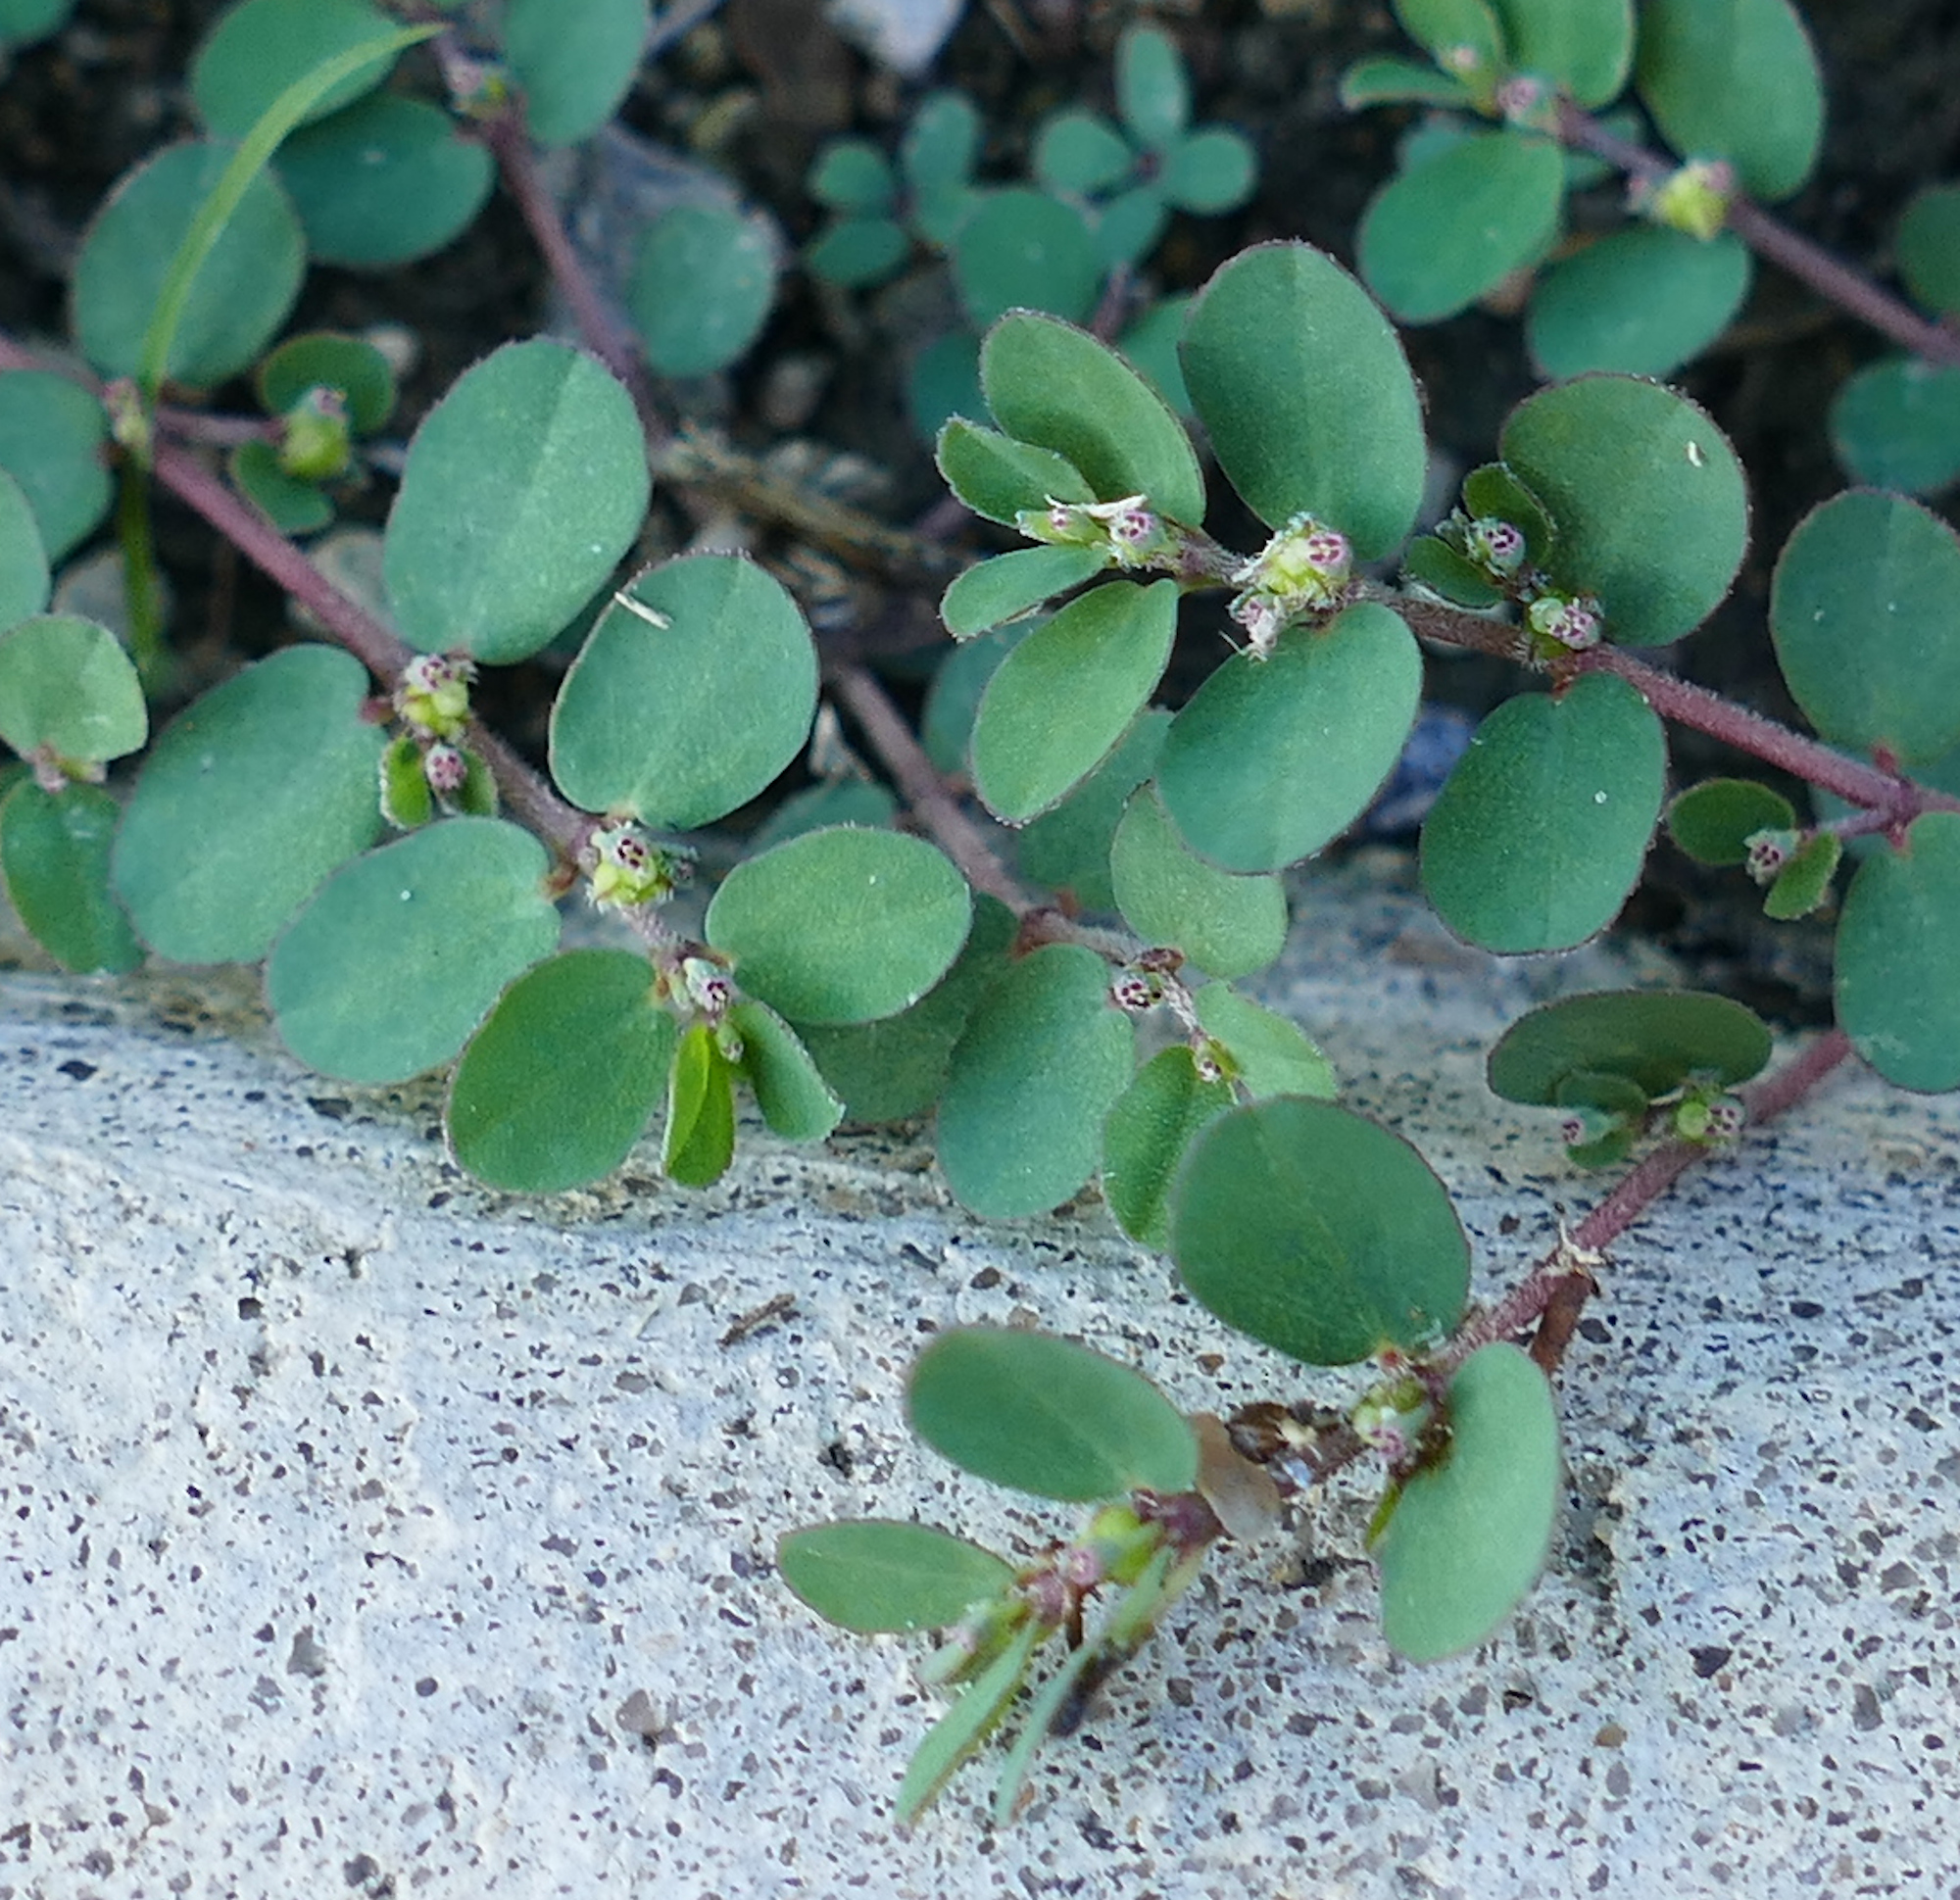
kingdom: Plantae
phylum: Tracheophyta
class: Magnoliopsida
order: Malpighiales
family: Euphorbiaceae
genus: Euphorbia
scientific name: Euphorbia prostrata
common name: Prostrate sandmat
